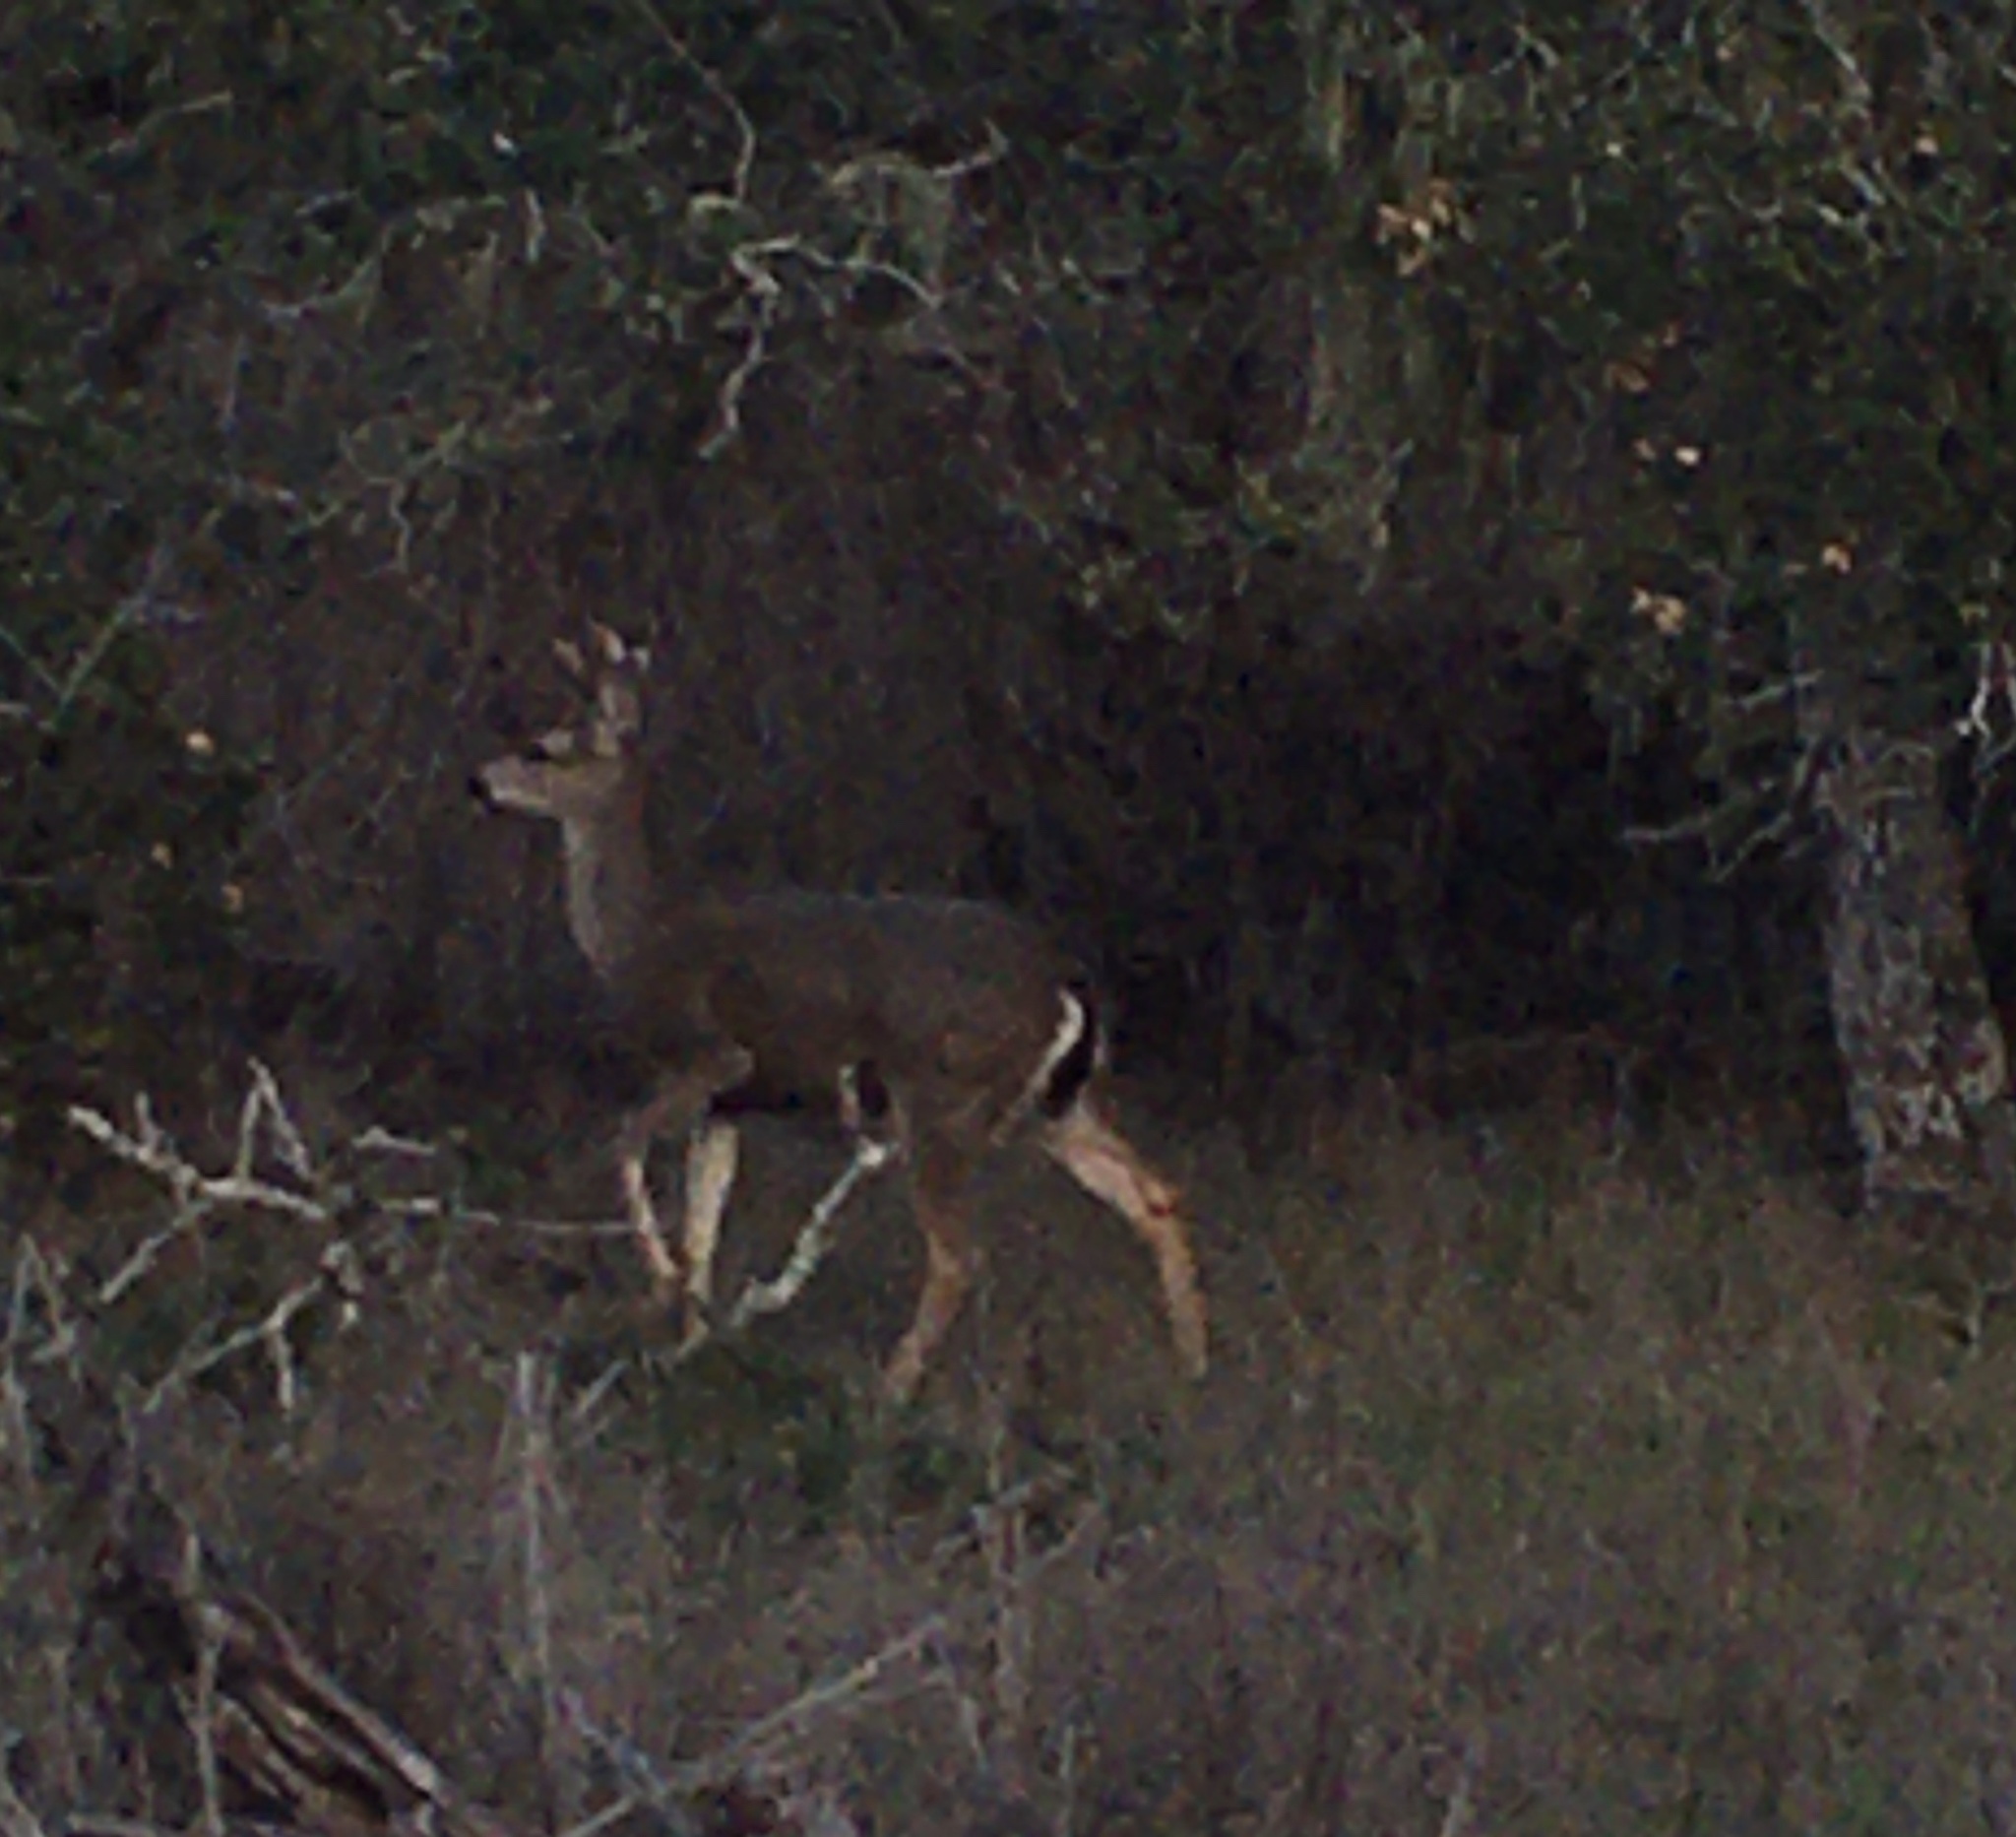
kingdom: Animalia
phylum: Chordata
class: Mammalia
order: Artiodactyla
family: Cervidae
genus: Odocoileus
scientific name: Odocoileus hemionus
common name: Mule deer
